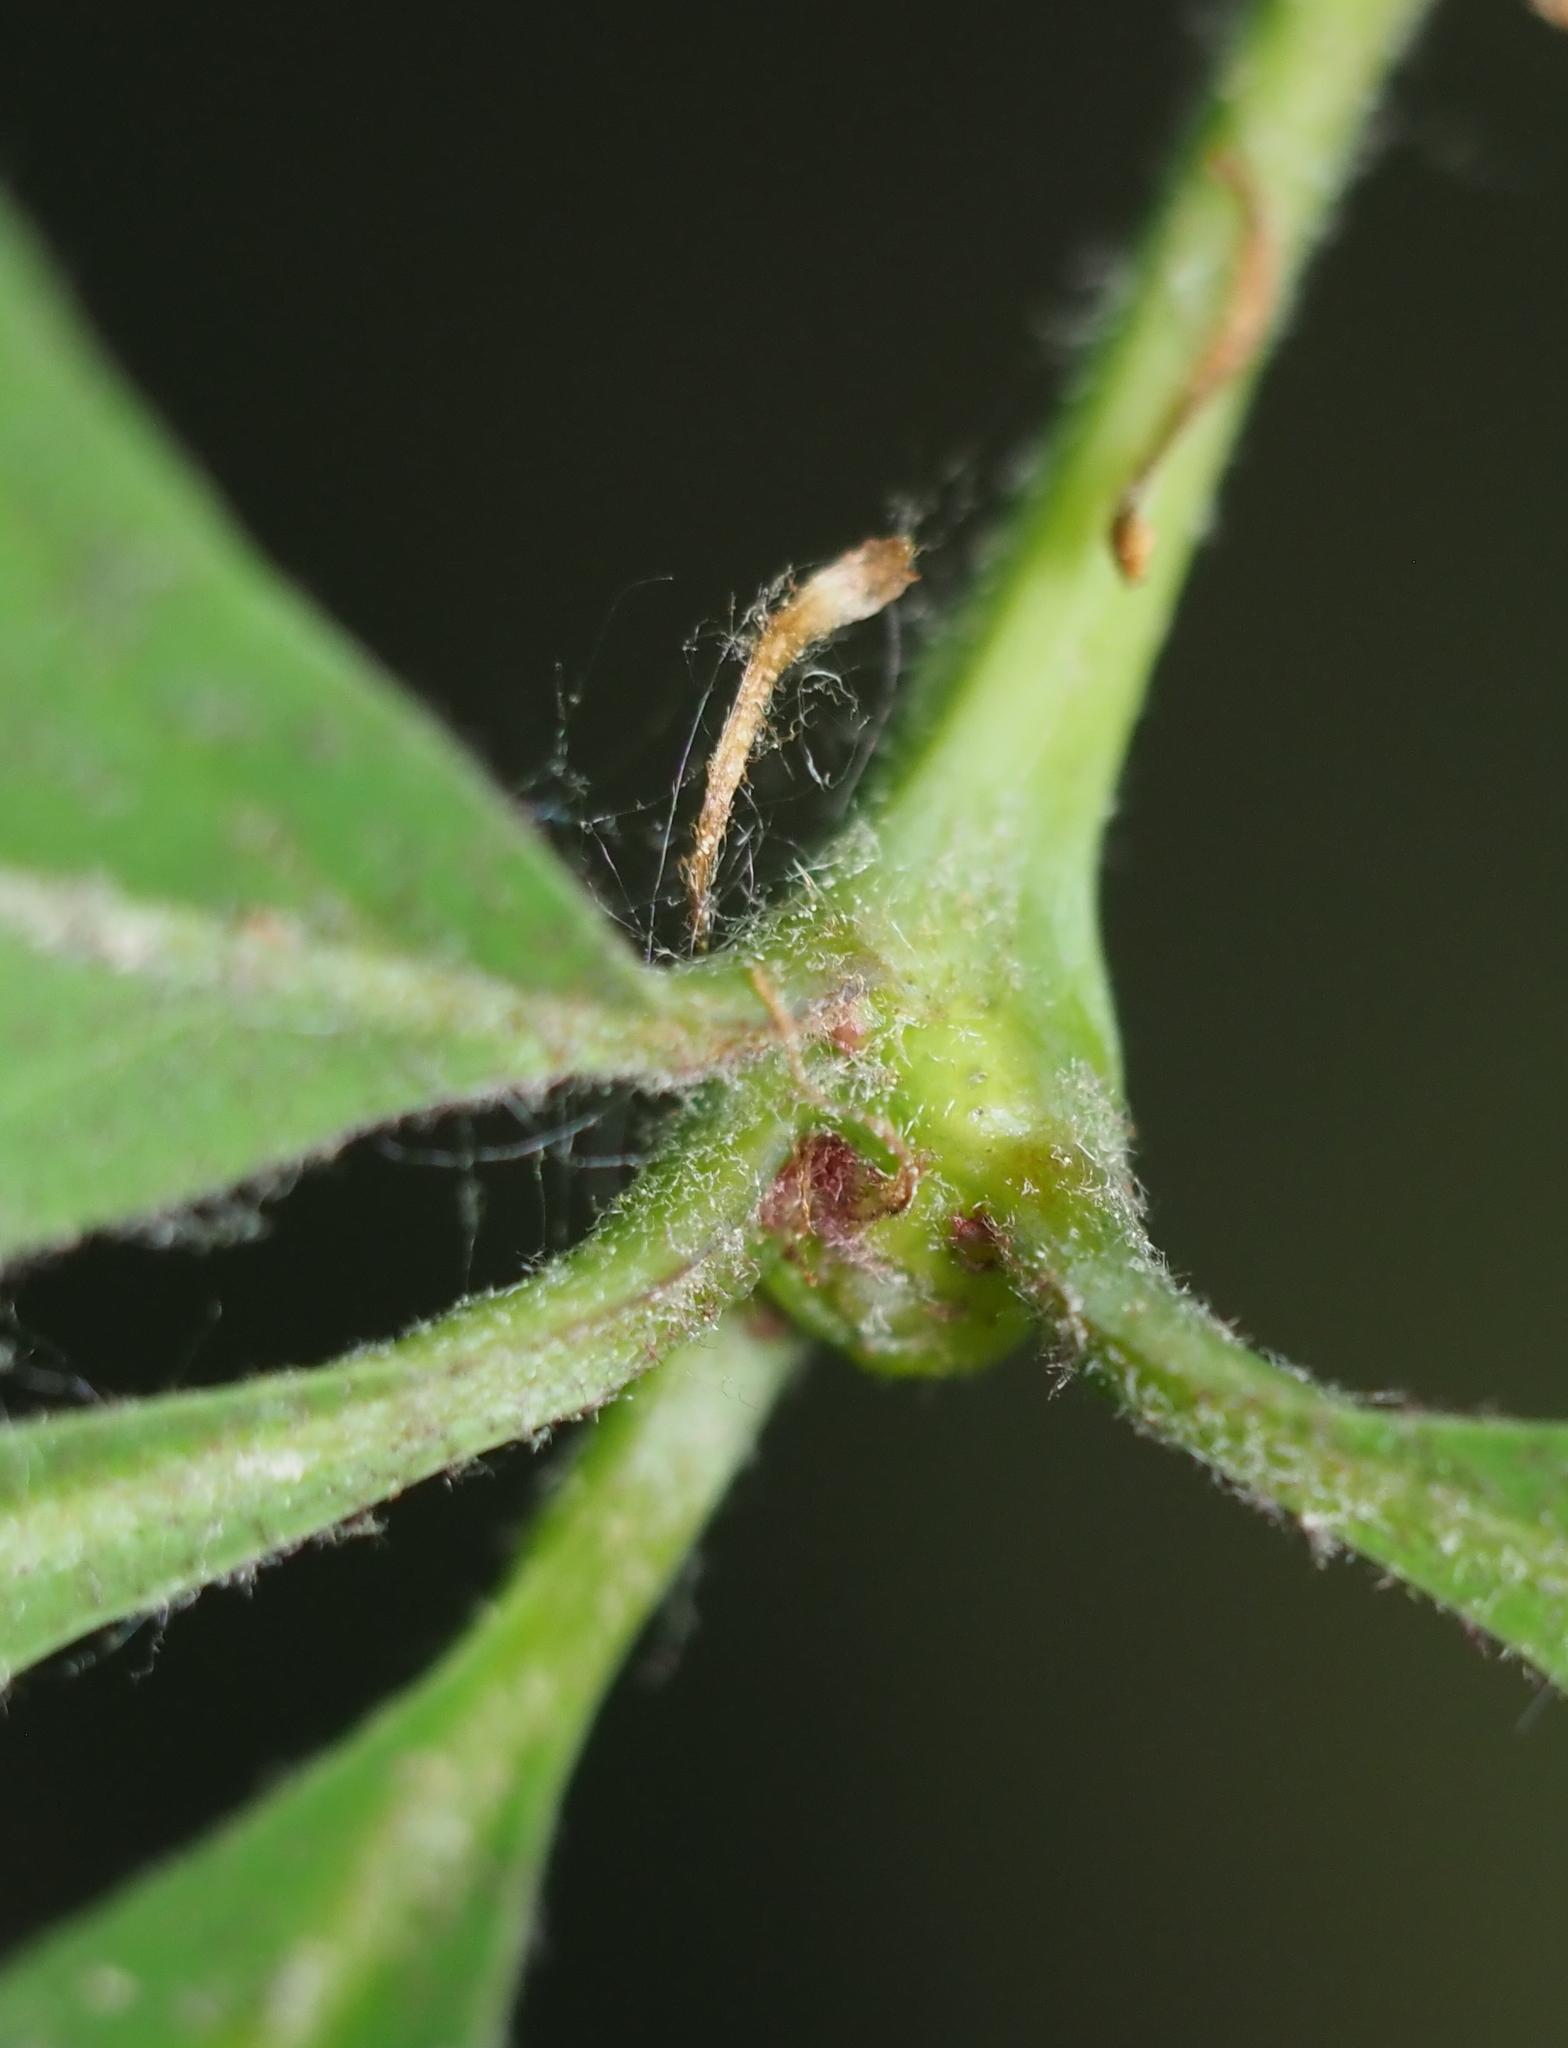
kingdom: Animalia
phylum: Arthropoda
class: Insecta
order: Hymenoptera
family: Cynipidae
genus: Callirhytis
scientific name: Callirhytis clavula
